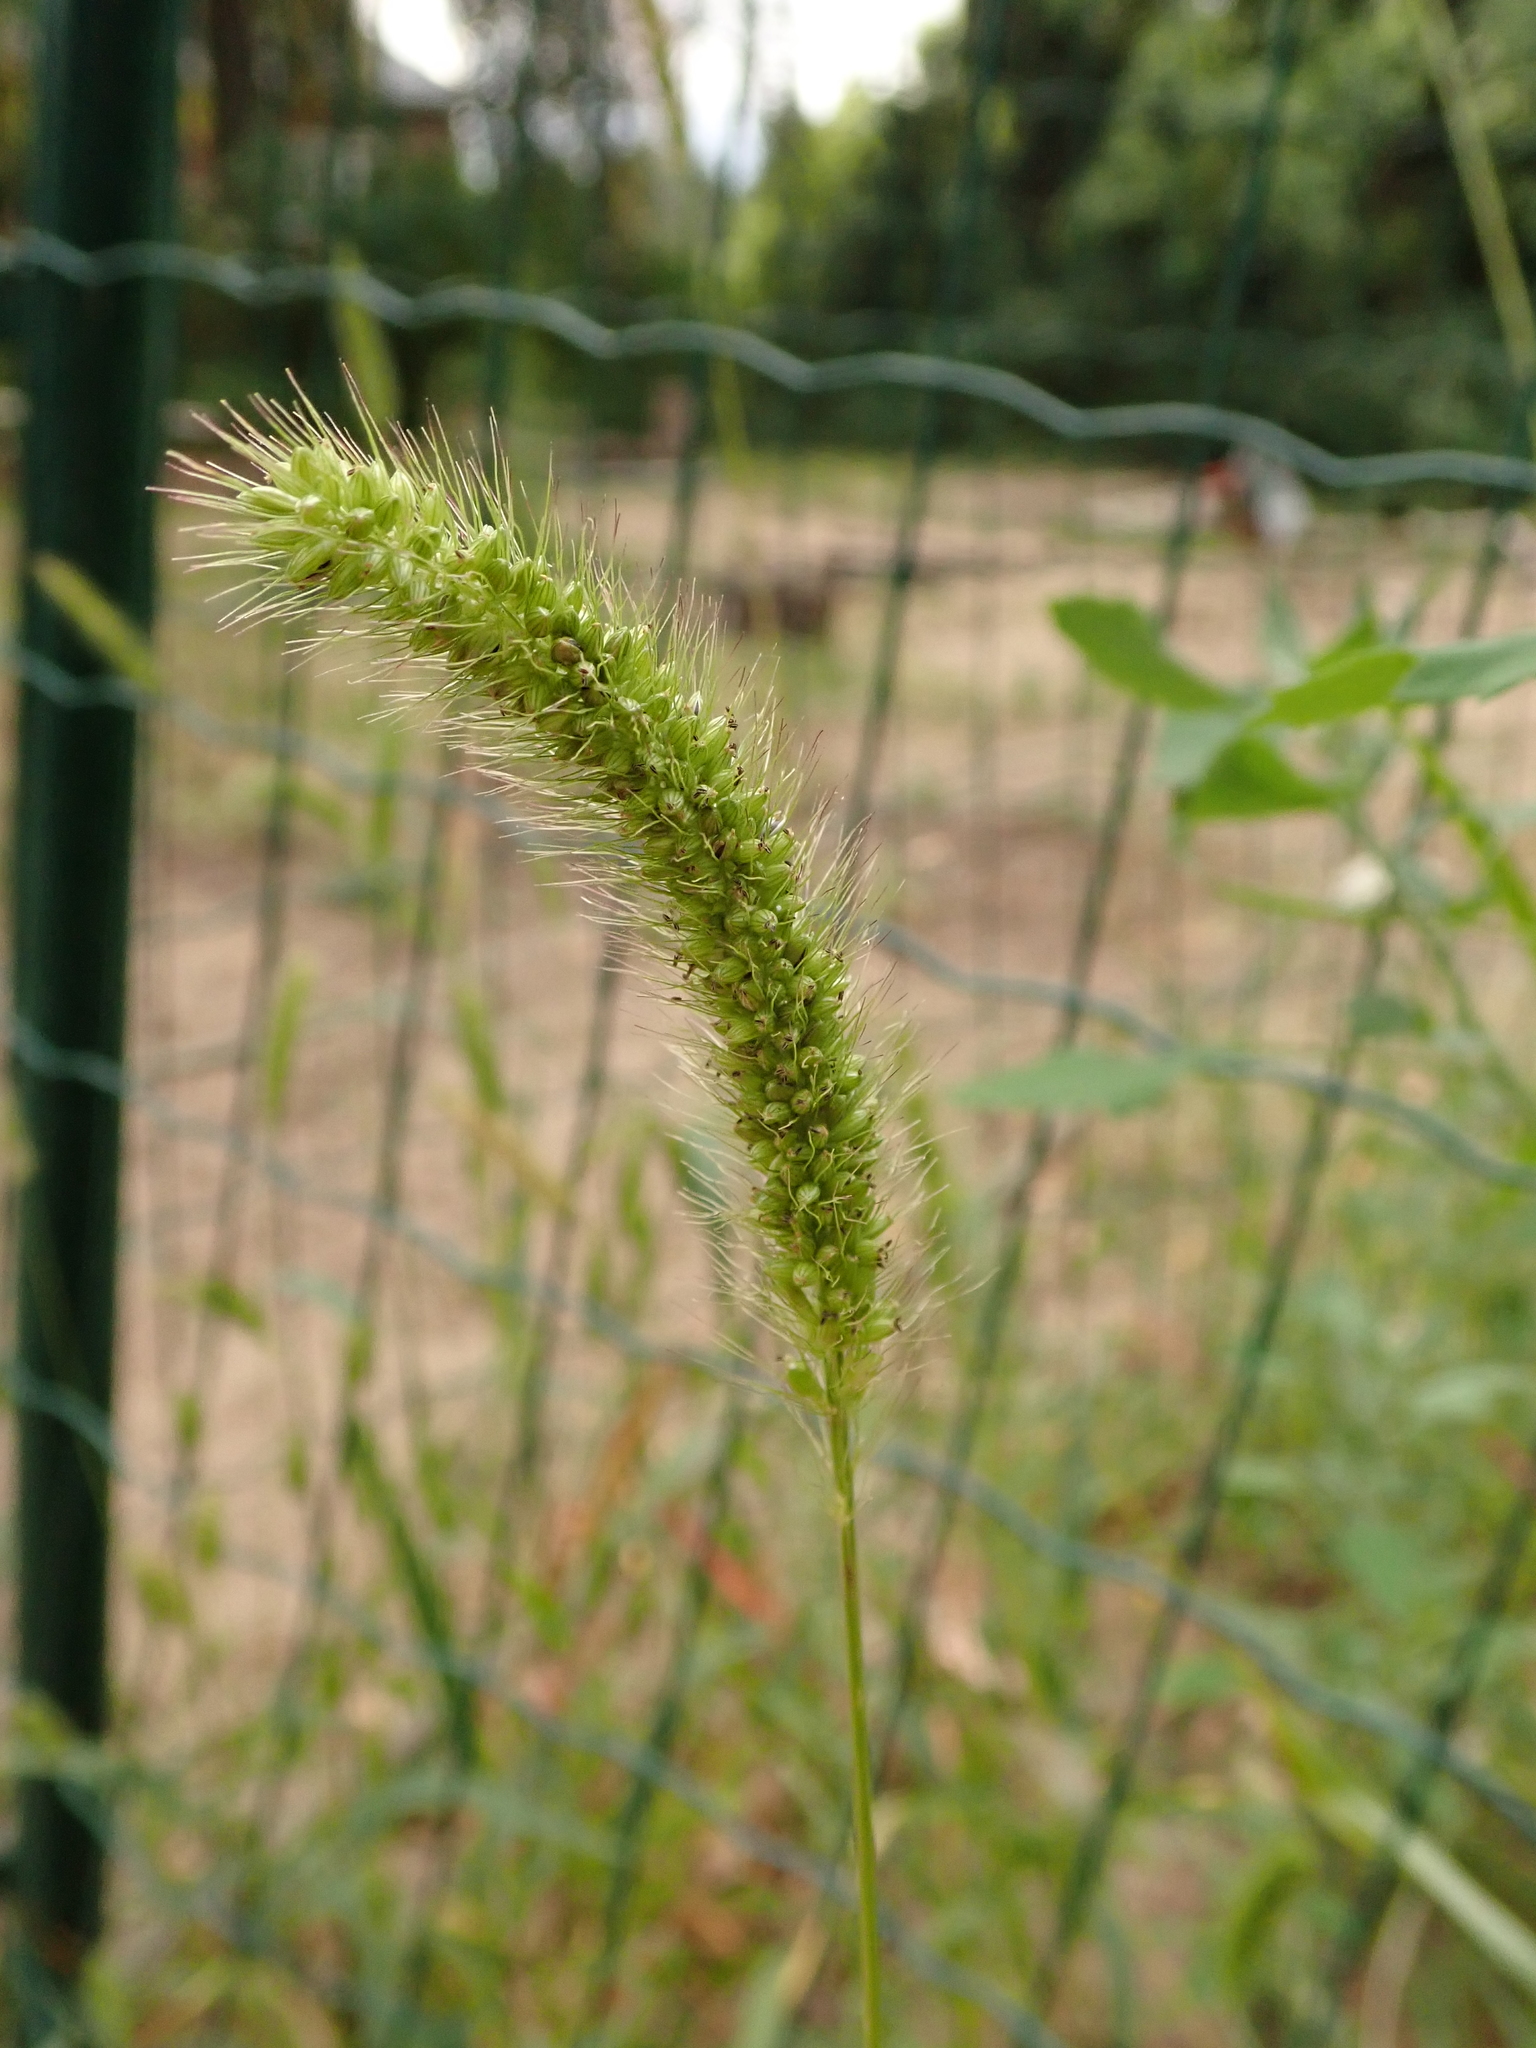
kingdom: Plantae
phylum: Tracheophyta
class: Liliopsida
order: Poales
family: Poaceae
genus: Setaria
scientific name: Setaria viridis
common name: Green bristlegrass
